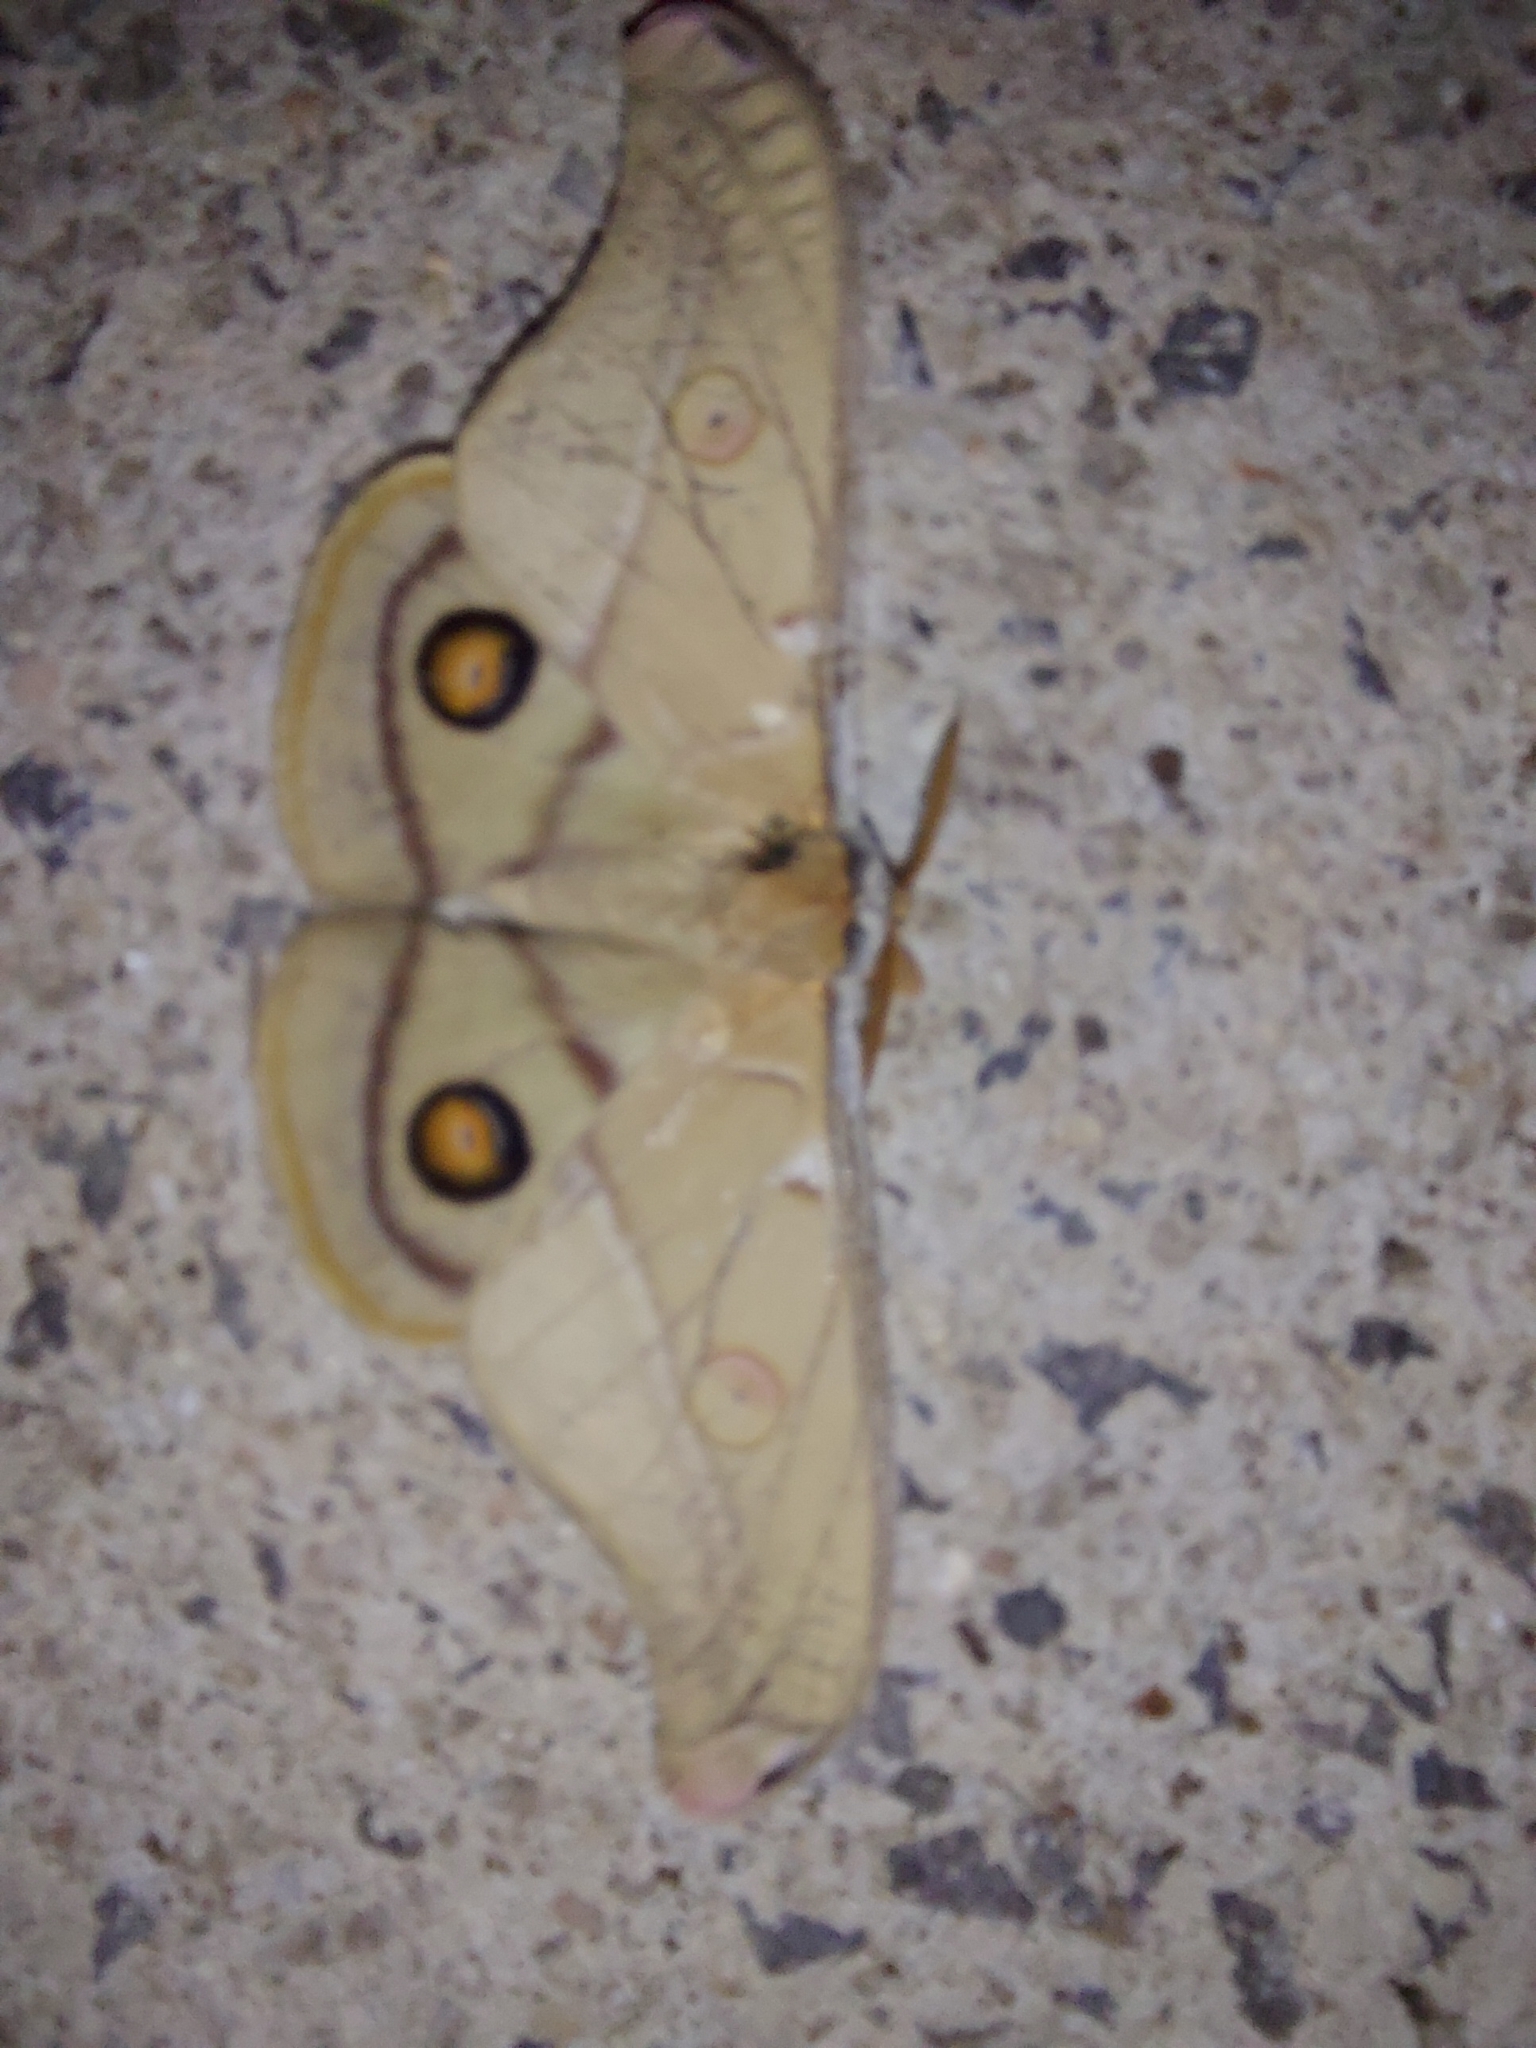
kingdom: Animalia
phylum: Arthropoda
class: Insecta
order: Lepidoptera
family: Saturniidae
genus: Opodiphthera
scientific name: Opodiphthera
